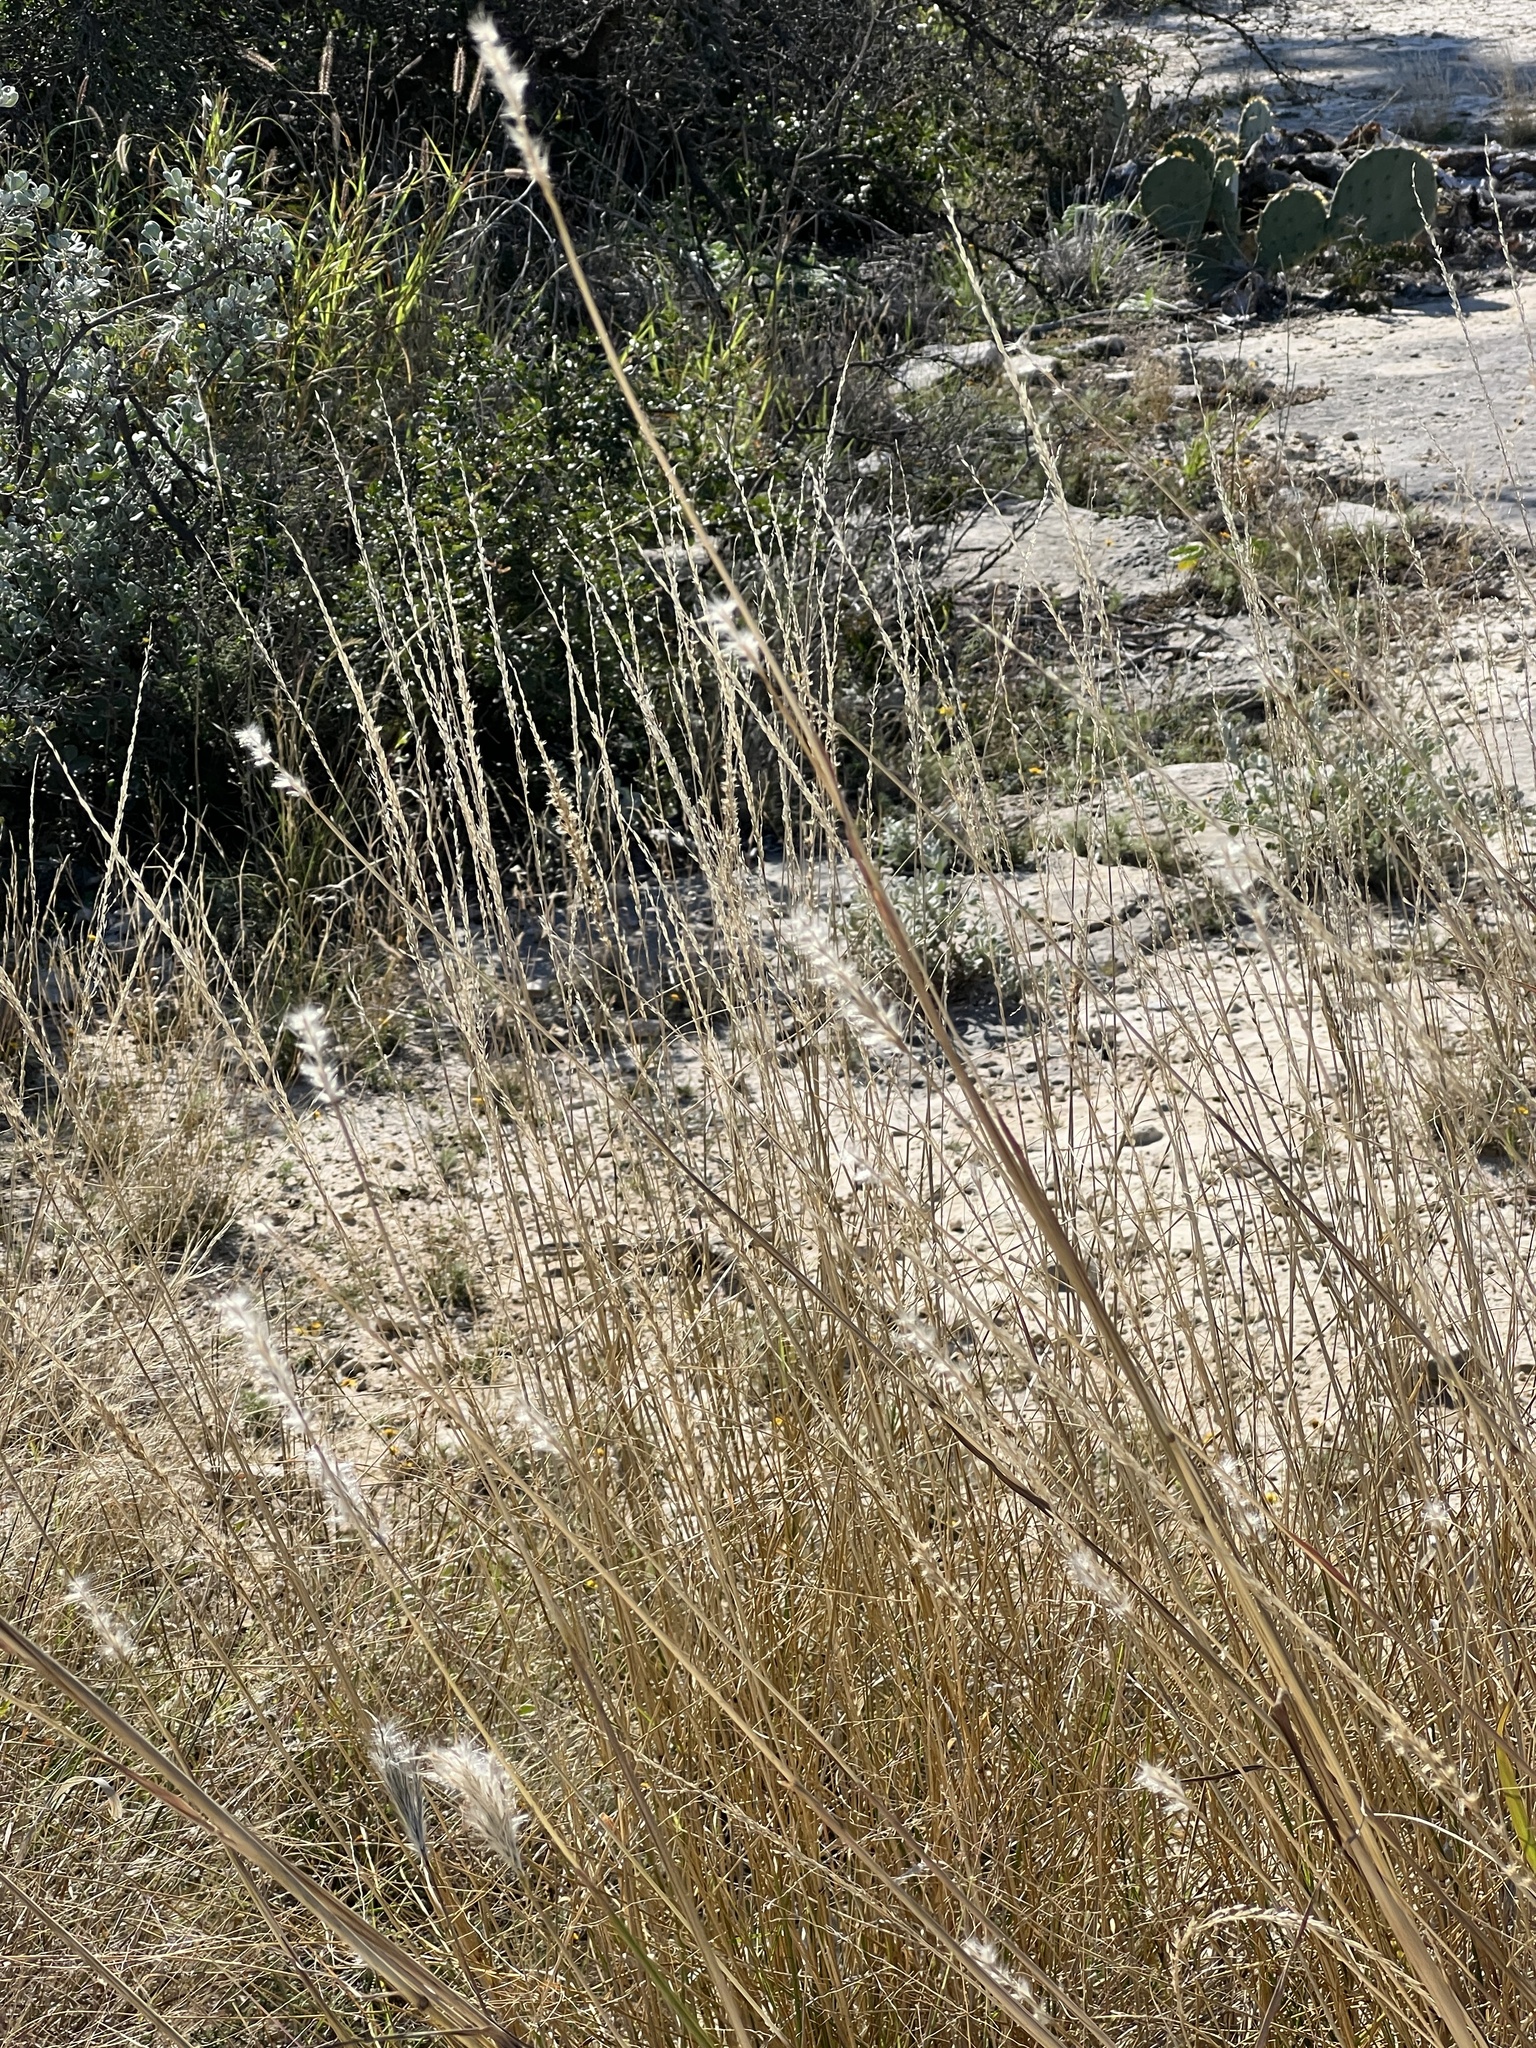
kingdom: Plantae
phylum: Tracheophyta
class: Liliopsida
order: Poales
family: Poaceae
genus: Bothriochloa
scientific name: Bothriochloa barbinodis
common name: Cane bluestem
